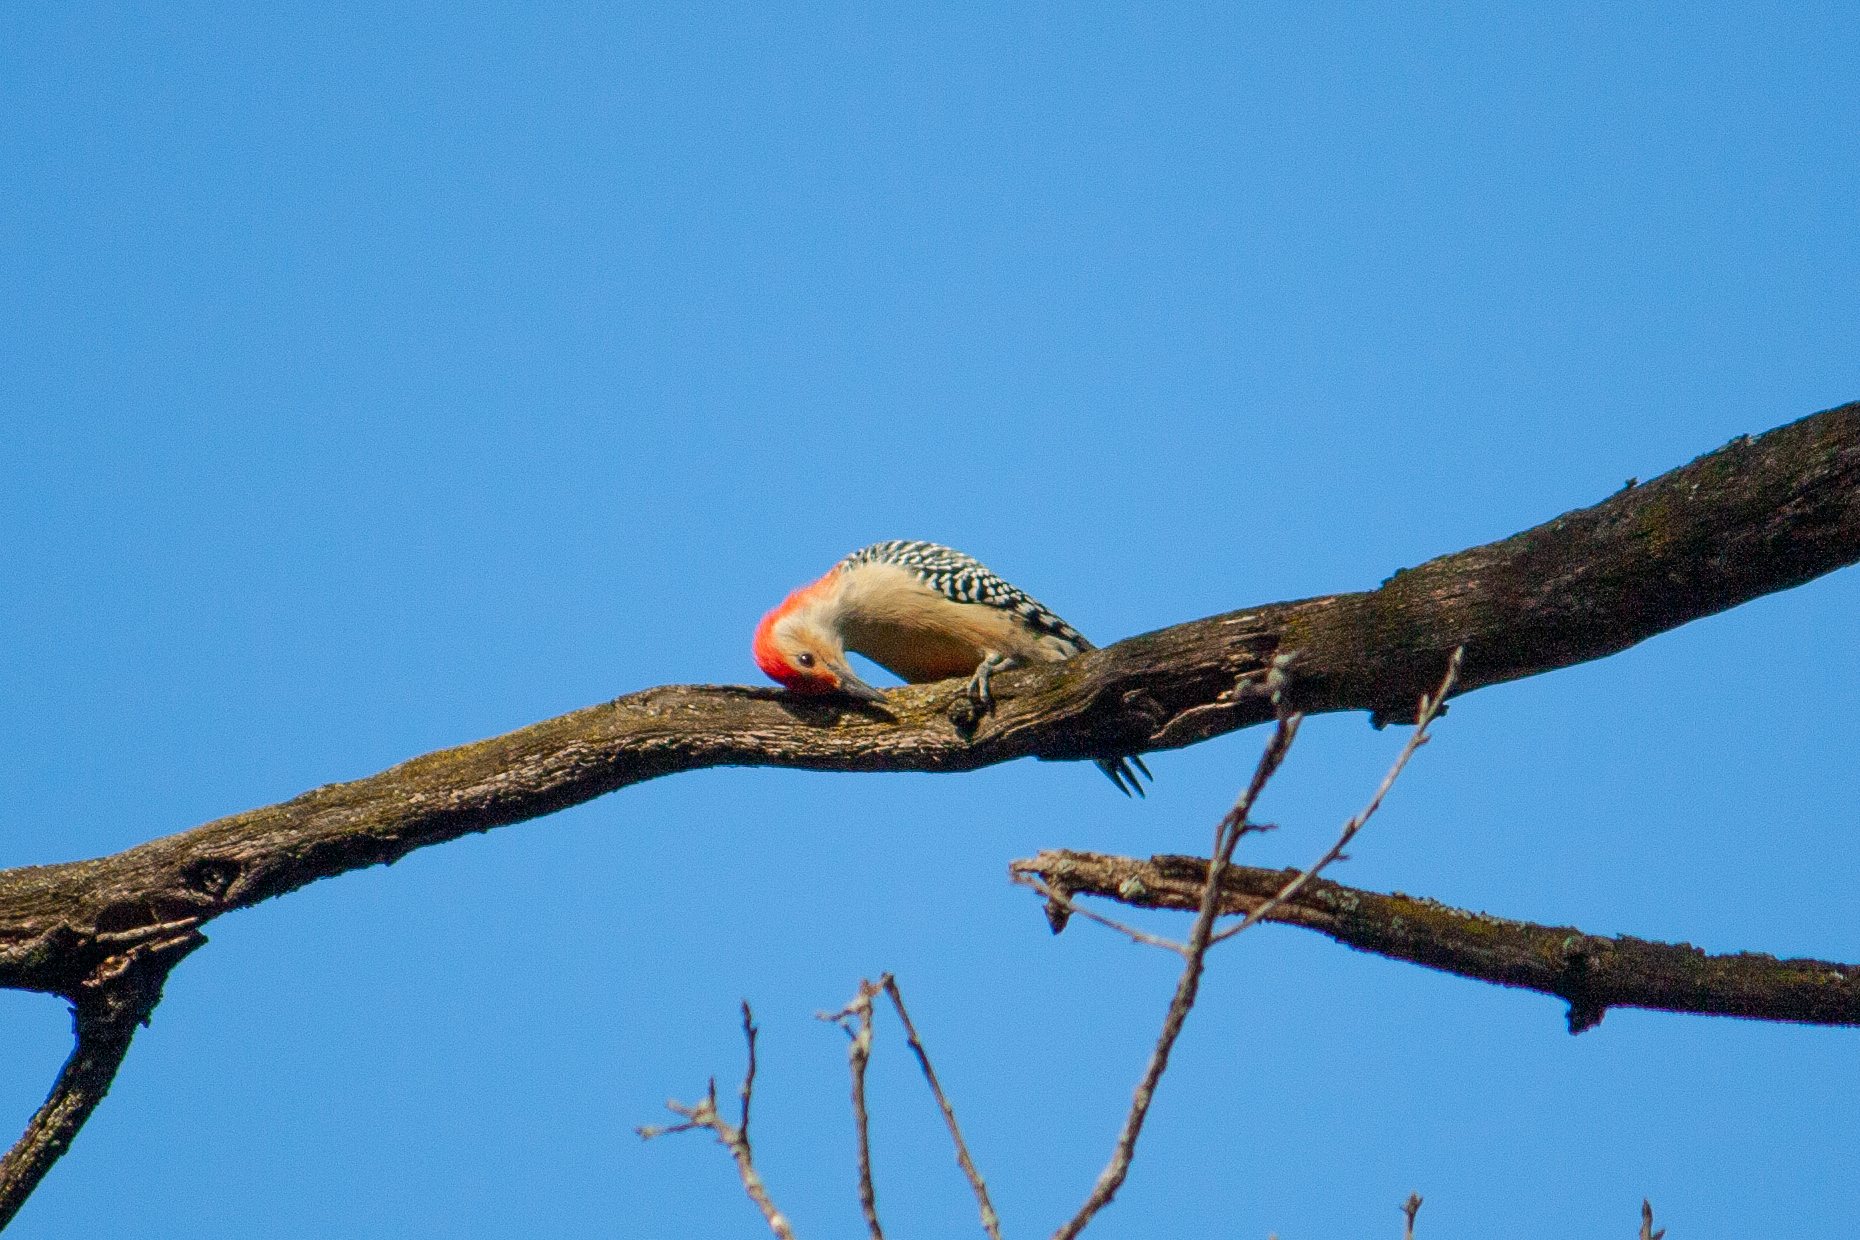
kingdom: Animalia
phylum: Chordata
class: Aves
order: Piciformes
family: Picidae
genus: Melanerpes
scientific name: Melanerpes carolinus
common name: Red-bellied woodpecker
